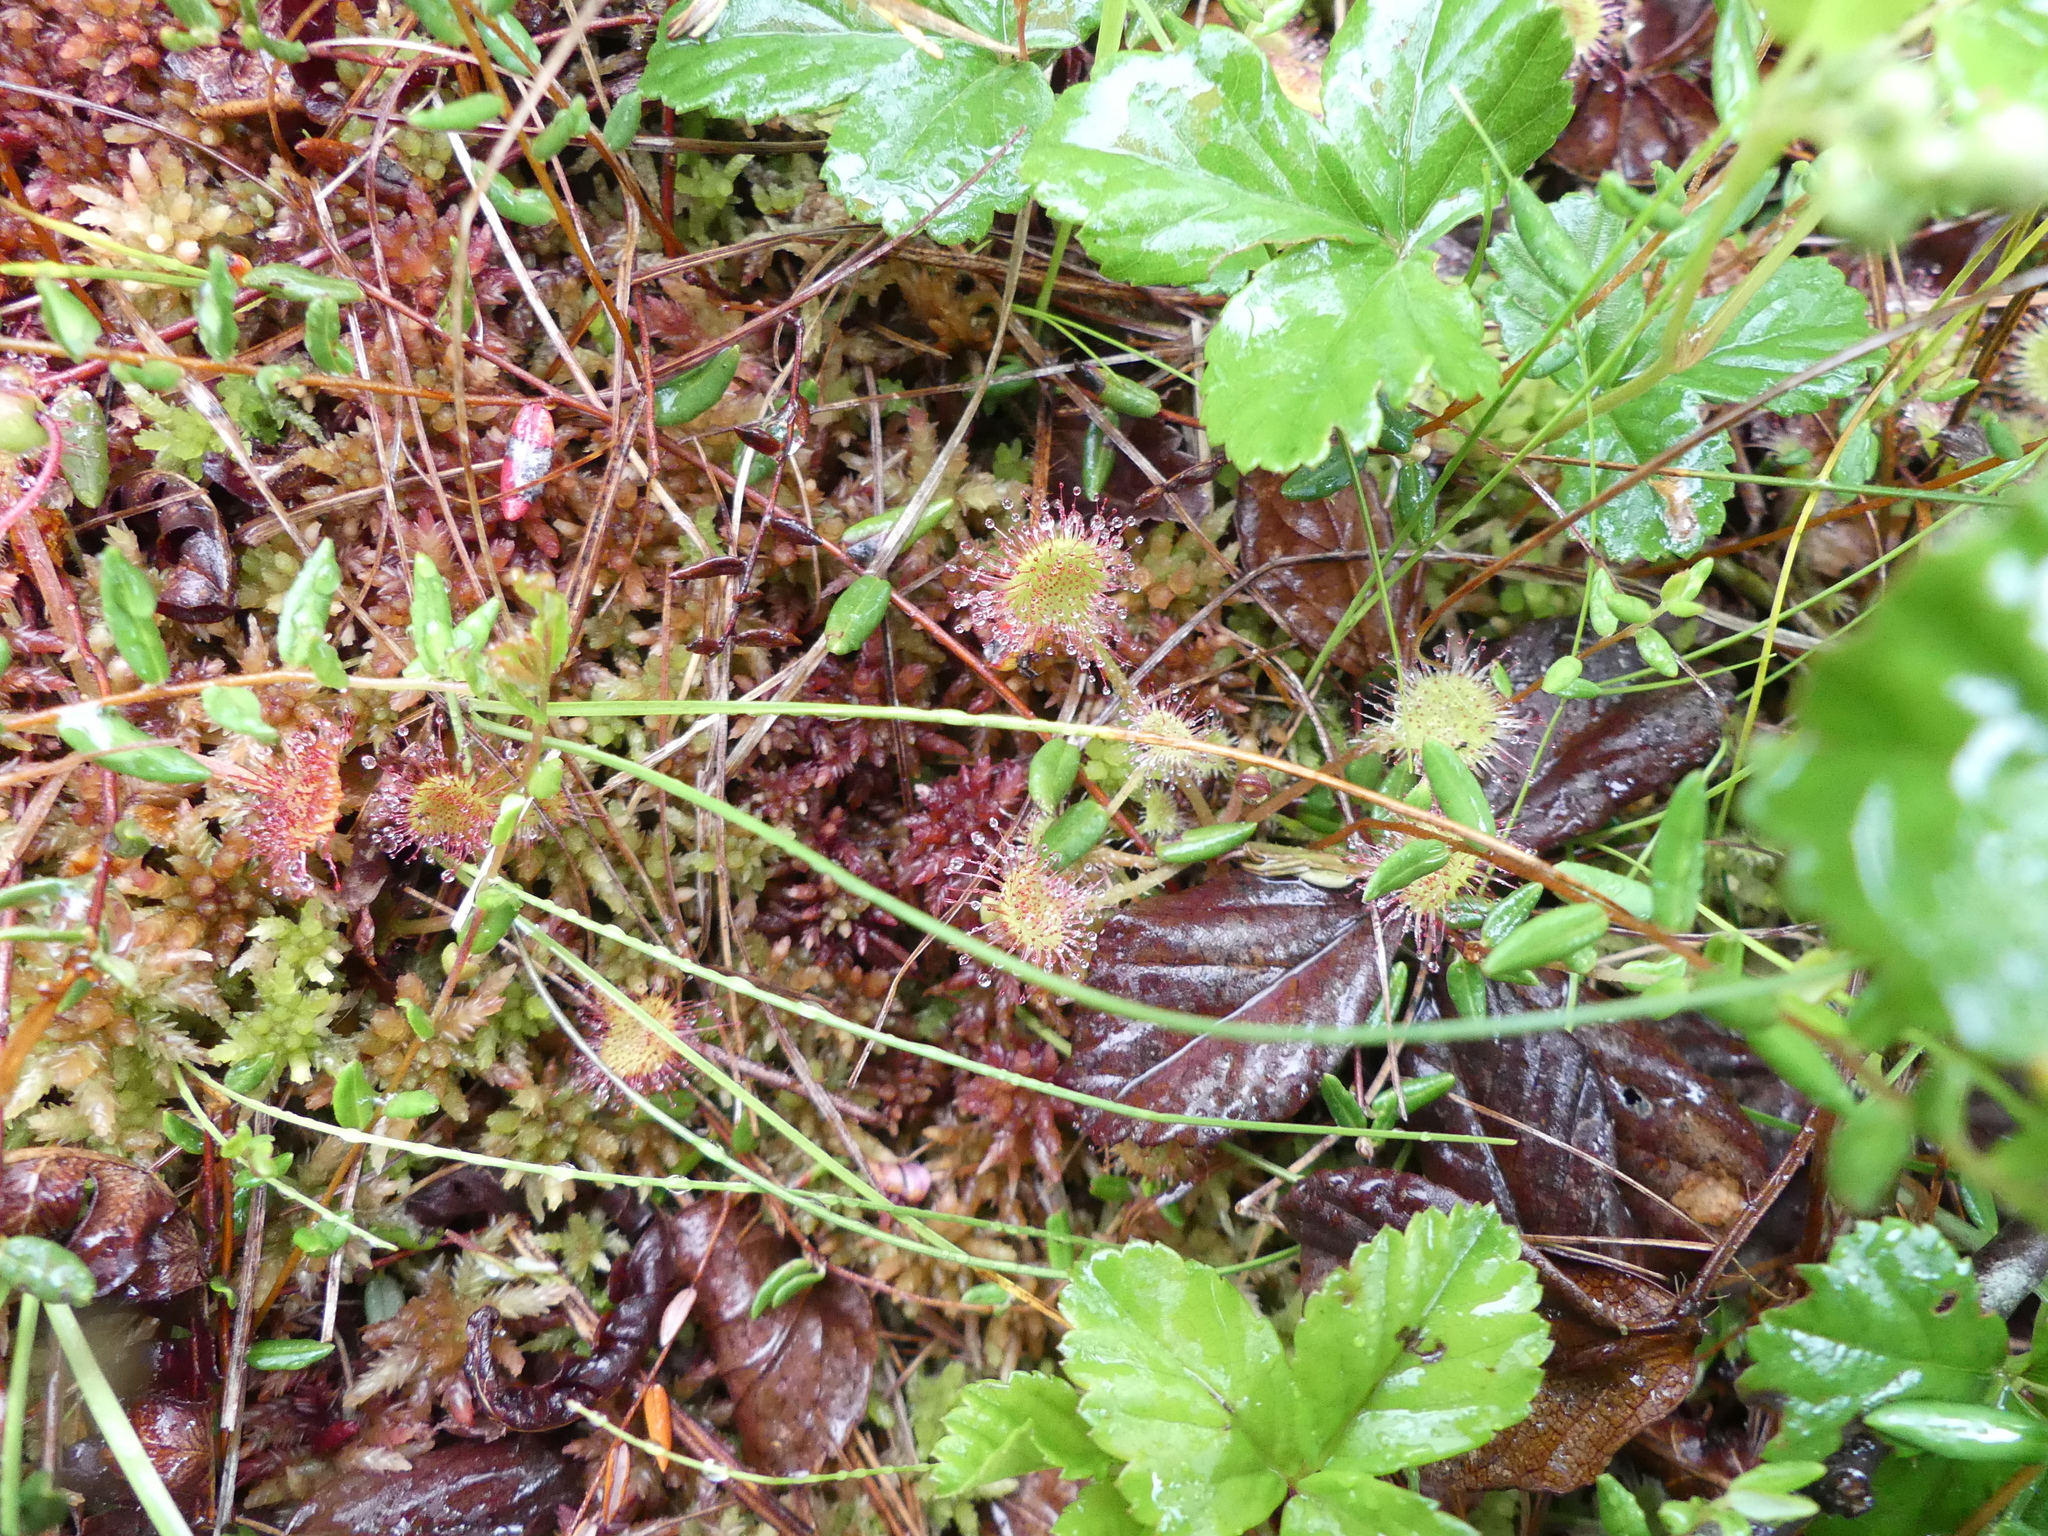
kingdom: Plantae
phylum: Tracheophyta
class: Magnoliopsida
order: Caryophyllales
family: Droseraceae
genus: Drosera
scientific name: Drosera rotundifolia
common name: Round-leaved sundew
